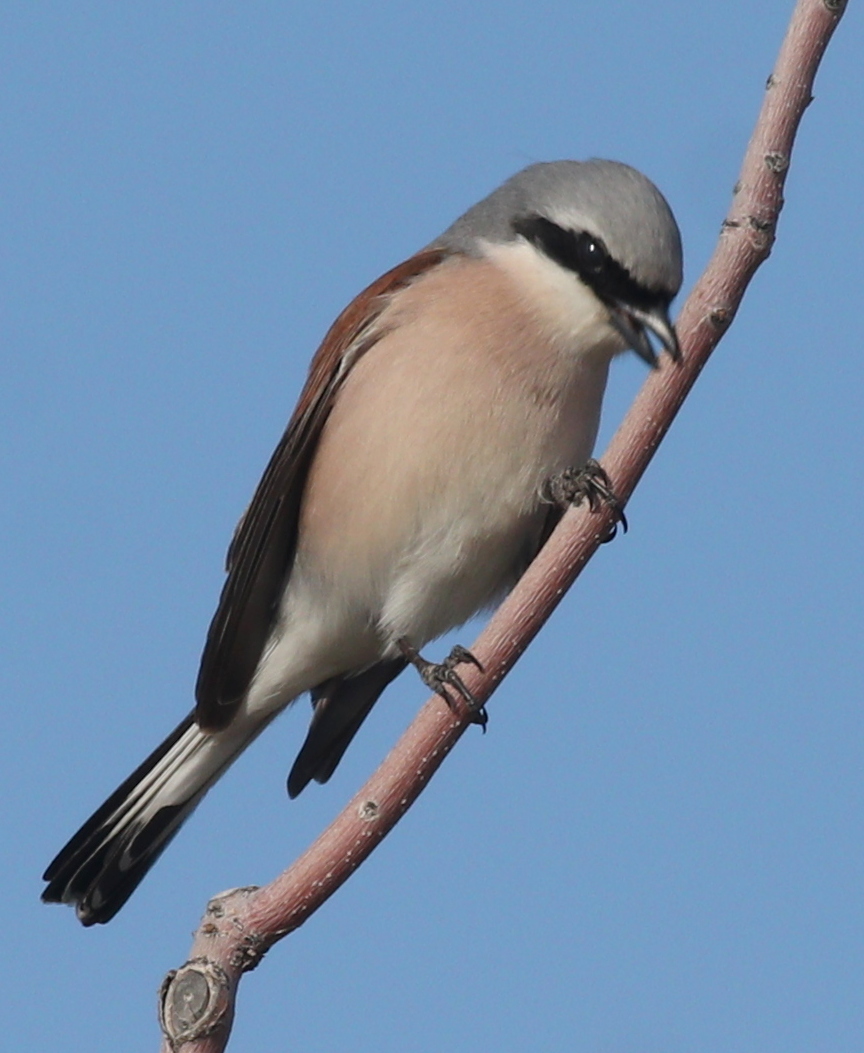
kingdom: Animalia
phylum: Chordata
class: Aves
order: Passeriformes
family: Laniidae
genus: Lanius
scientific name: Lanius collurio
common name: Red-backed shrike
